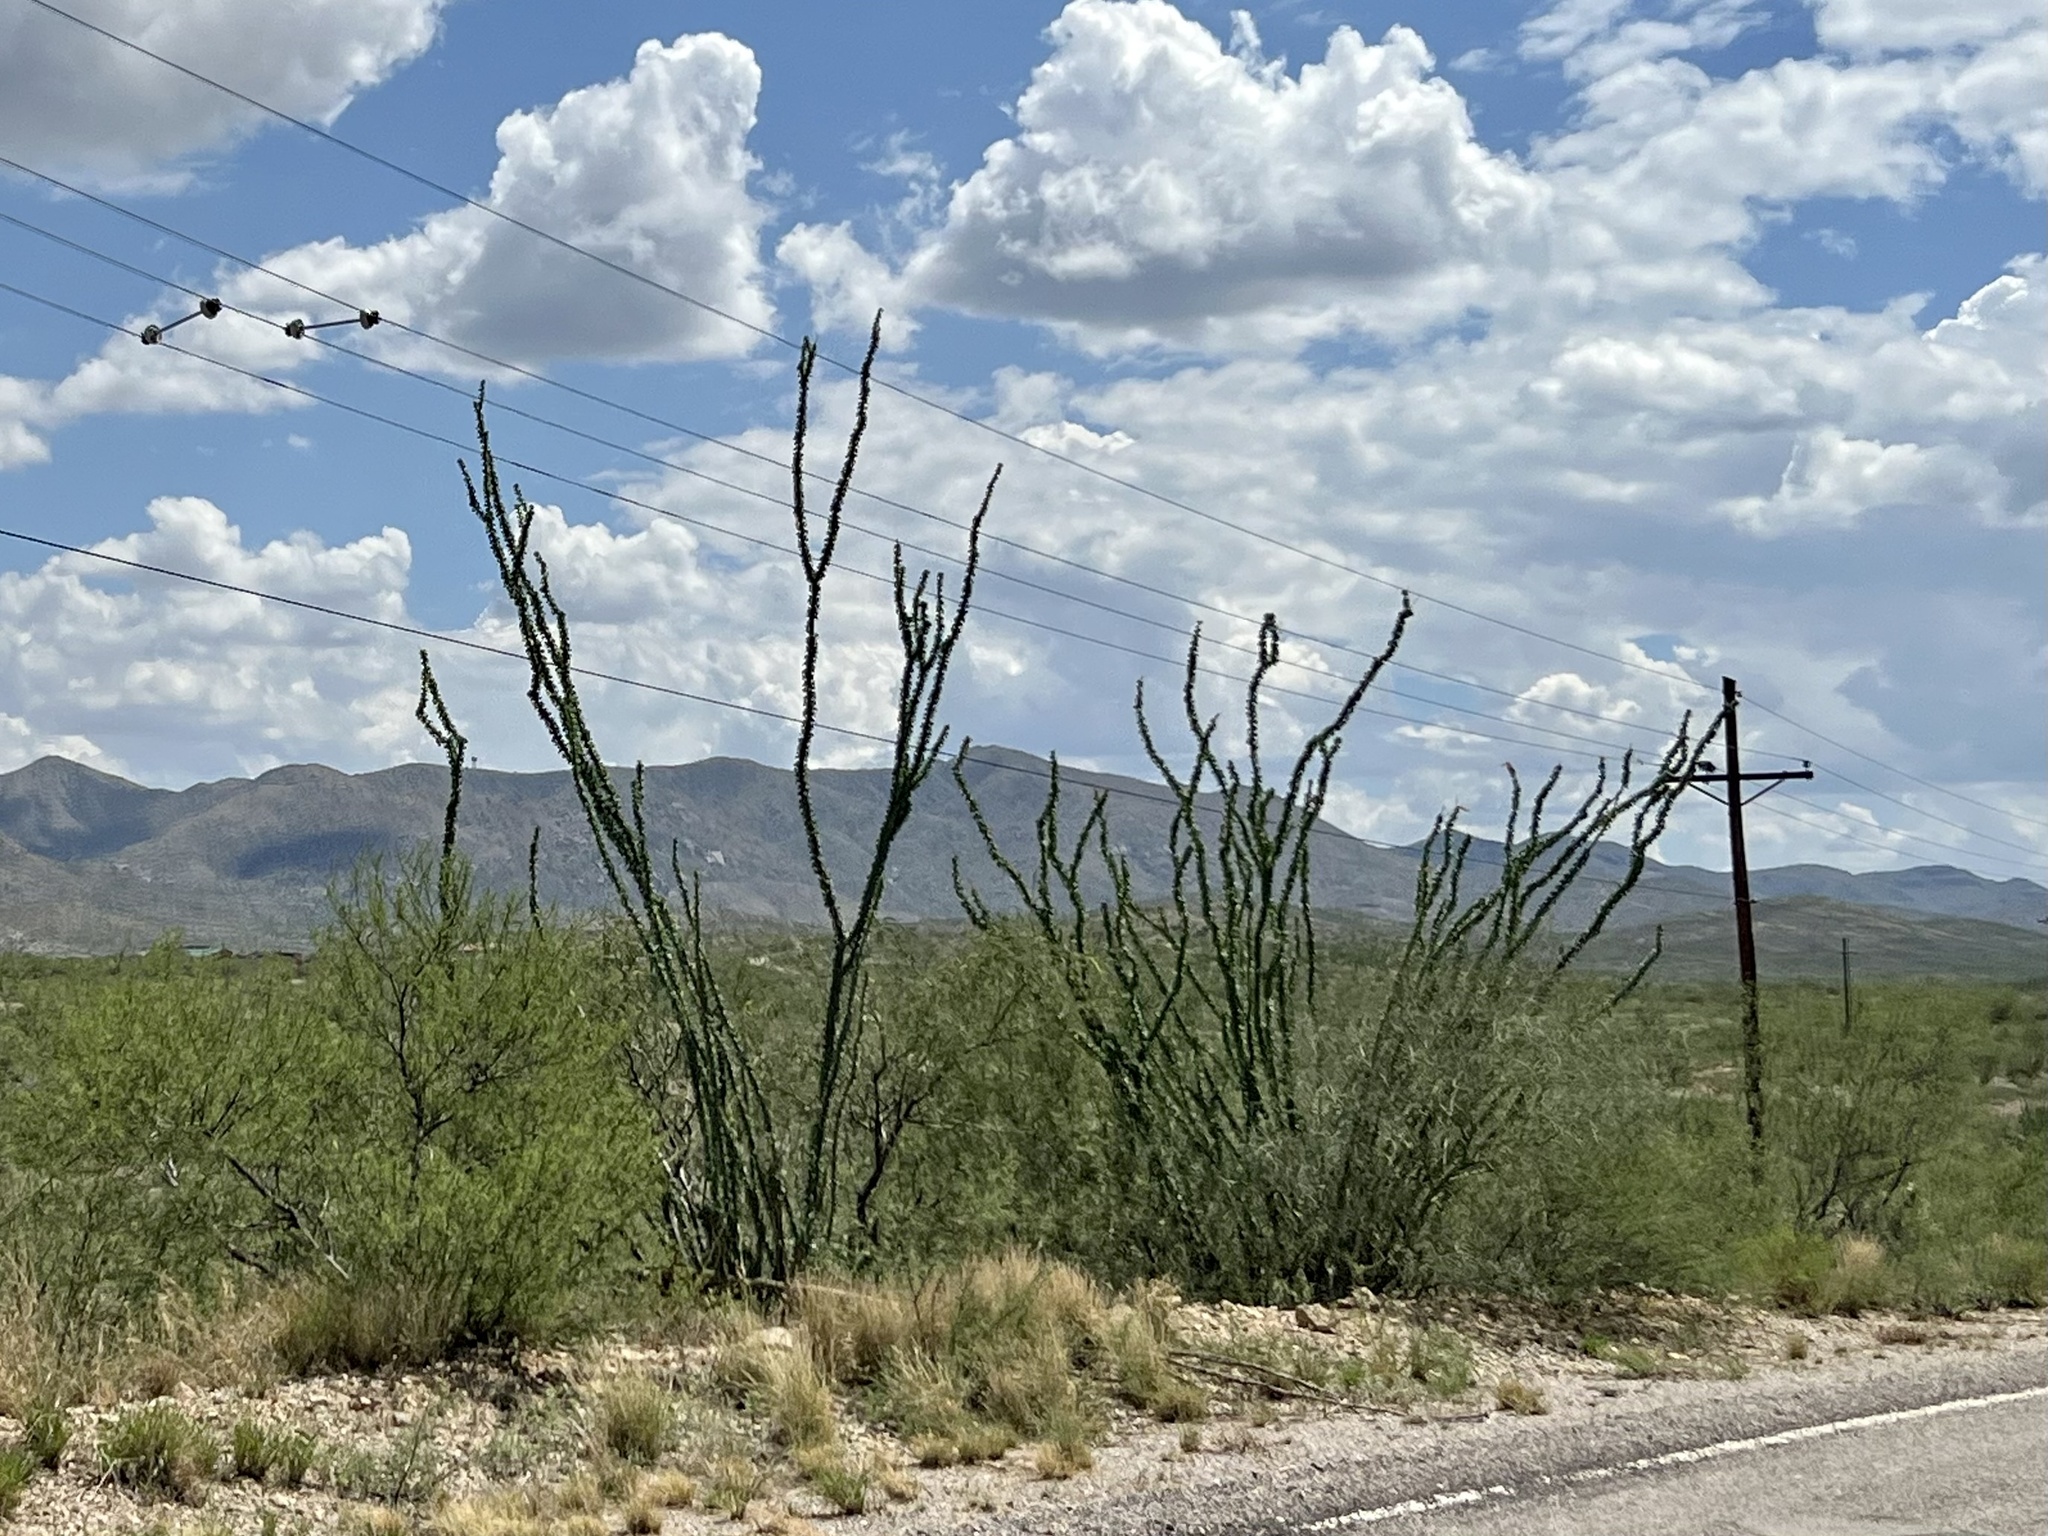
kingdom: Plantae
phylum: Tracheophyta
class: Magnoliopsida
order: Ericales
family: Fouquieriaceae
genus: Fouquieria
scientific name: Fouquieria splendens
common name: Vine-cactus
